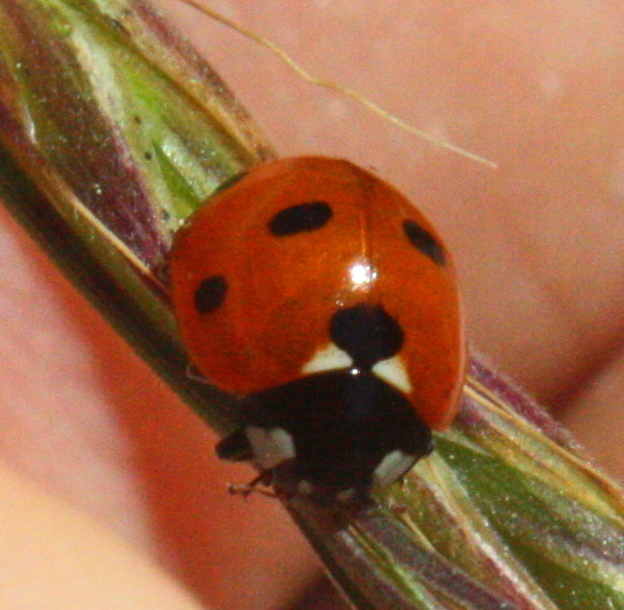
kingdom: Animalia
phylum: Arthropoda
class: Insecta
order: Coleoptera
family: Coccinellidae
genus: Coccinella
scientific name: Coccinella septempunctata
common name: Sevenspotted lady beetle
